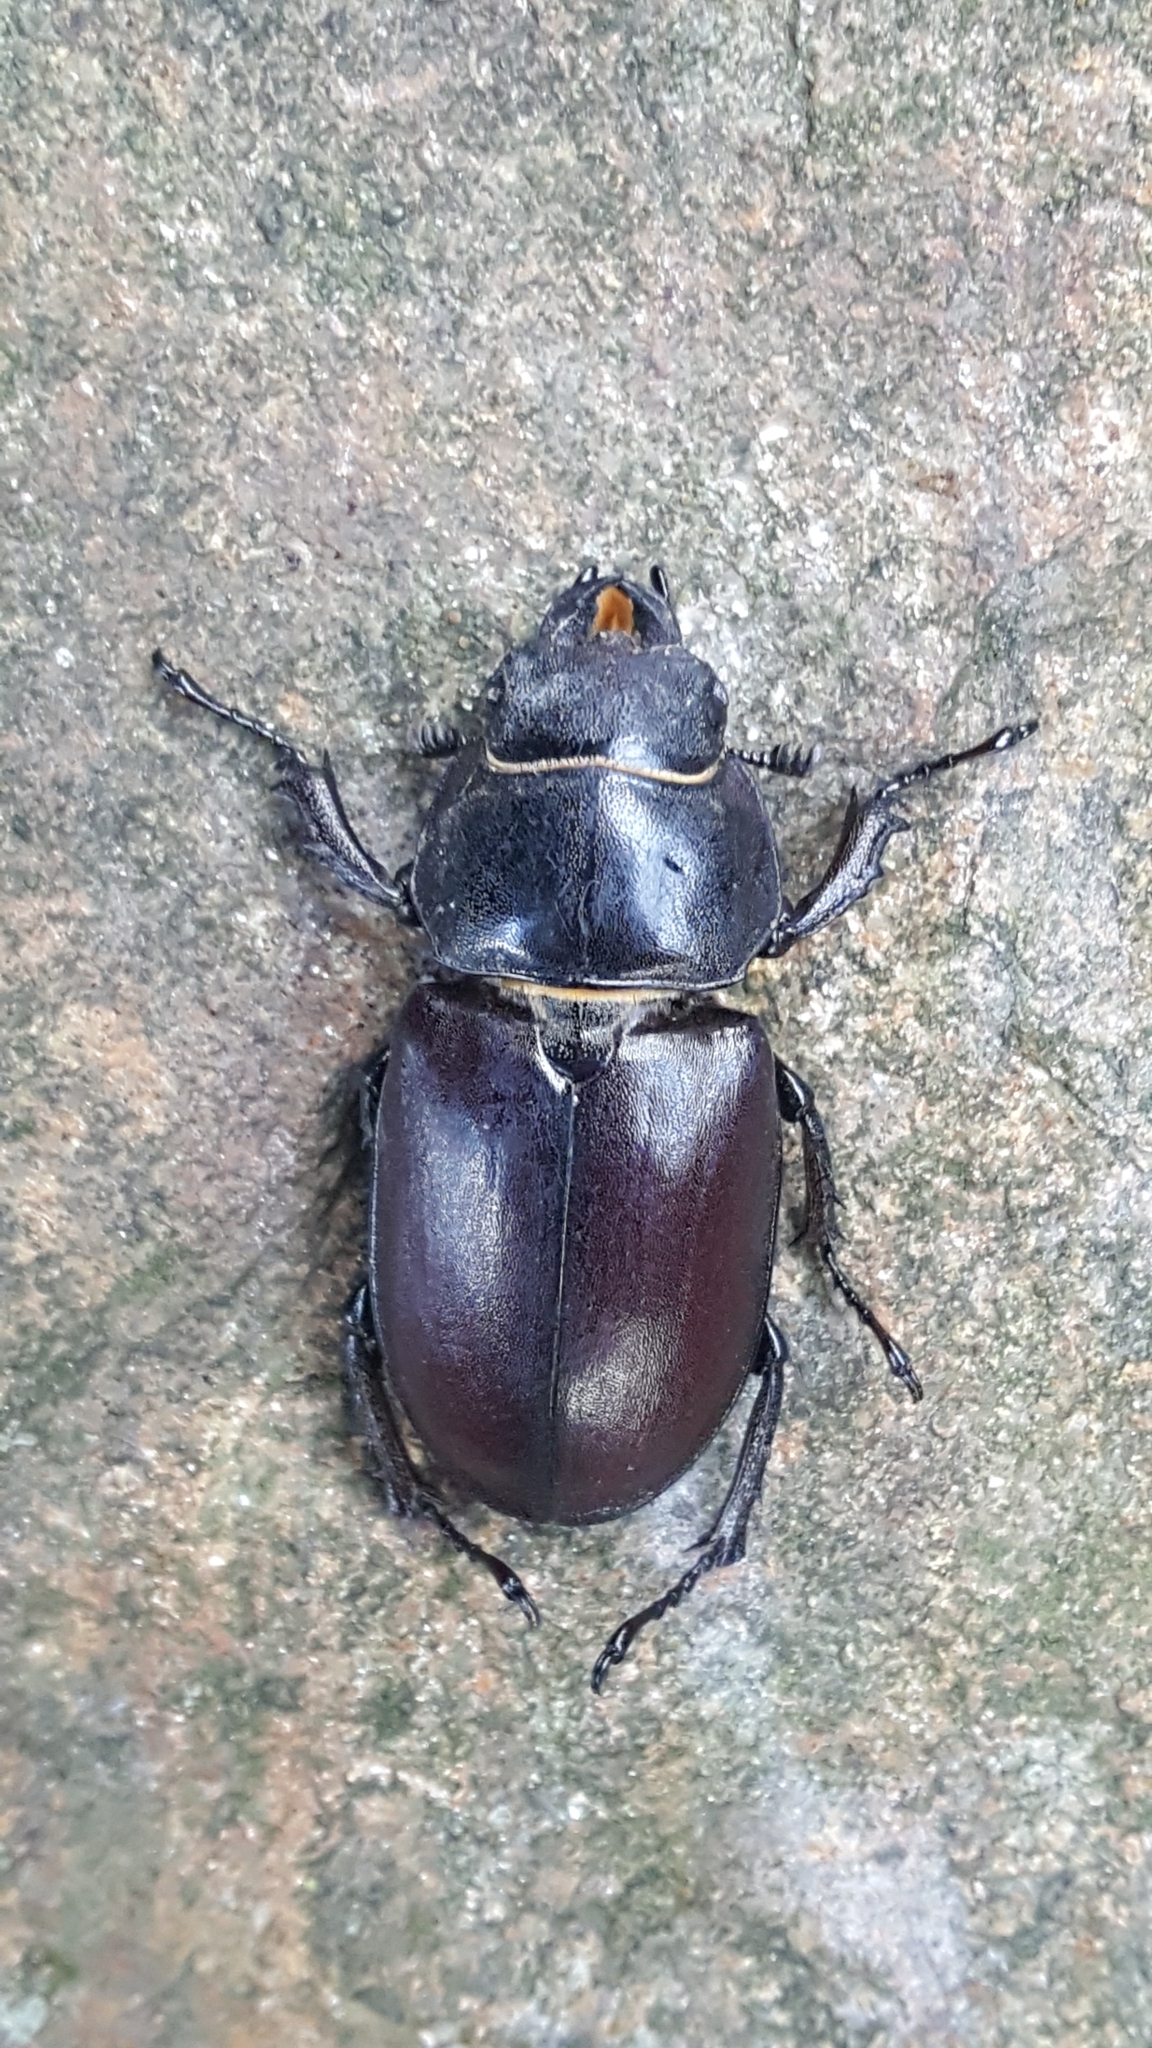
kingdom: Animalia
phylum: Arthropoda
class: Insecta
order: Coleoptera
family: Lucanidae
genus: Lucanus
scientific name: Lucanus cervus
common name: Stag beetle
